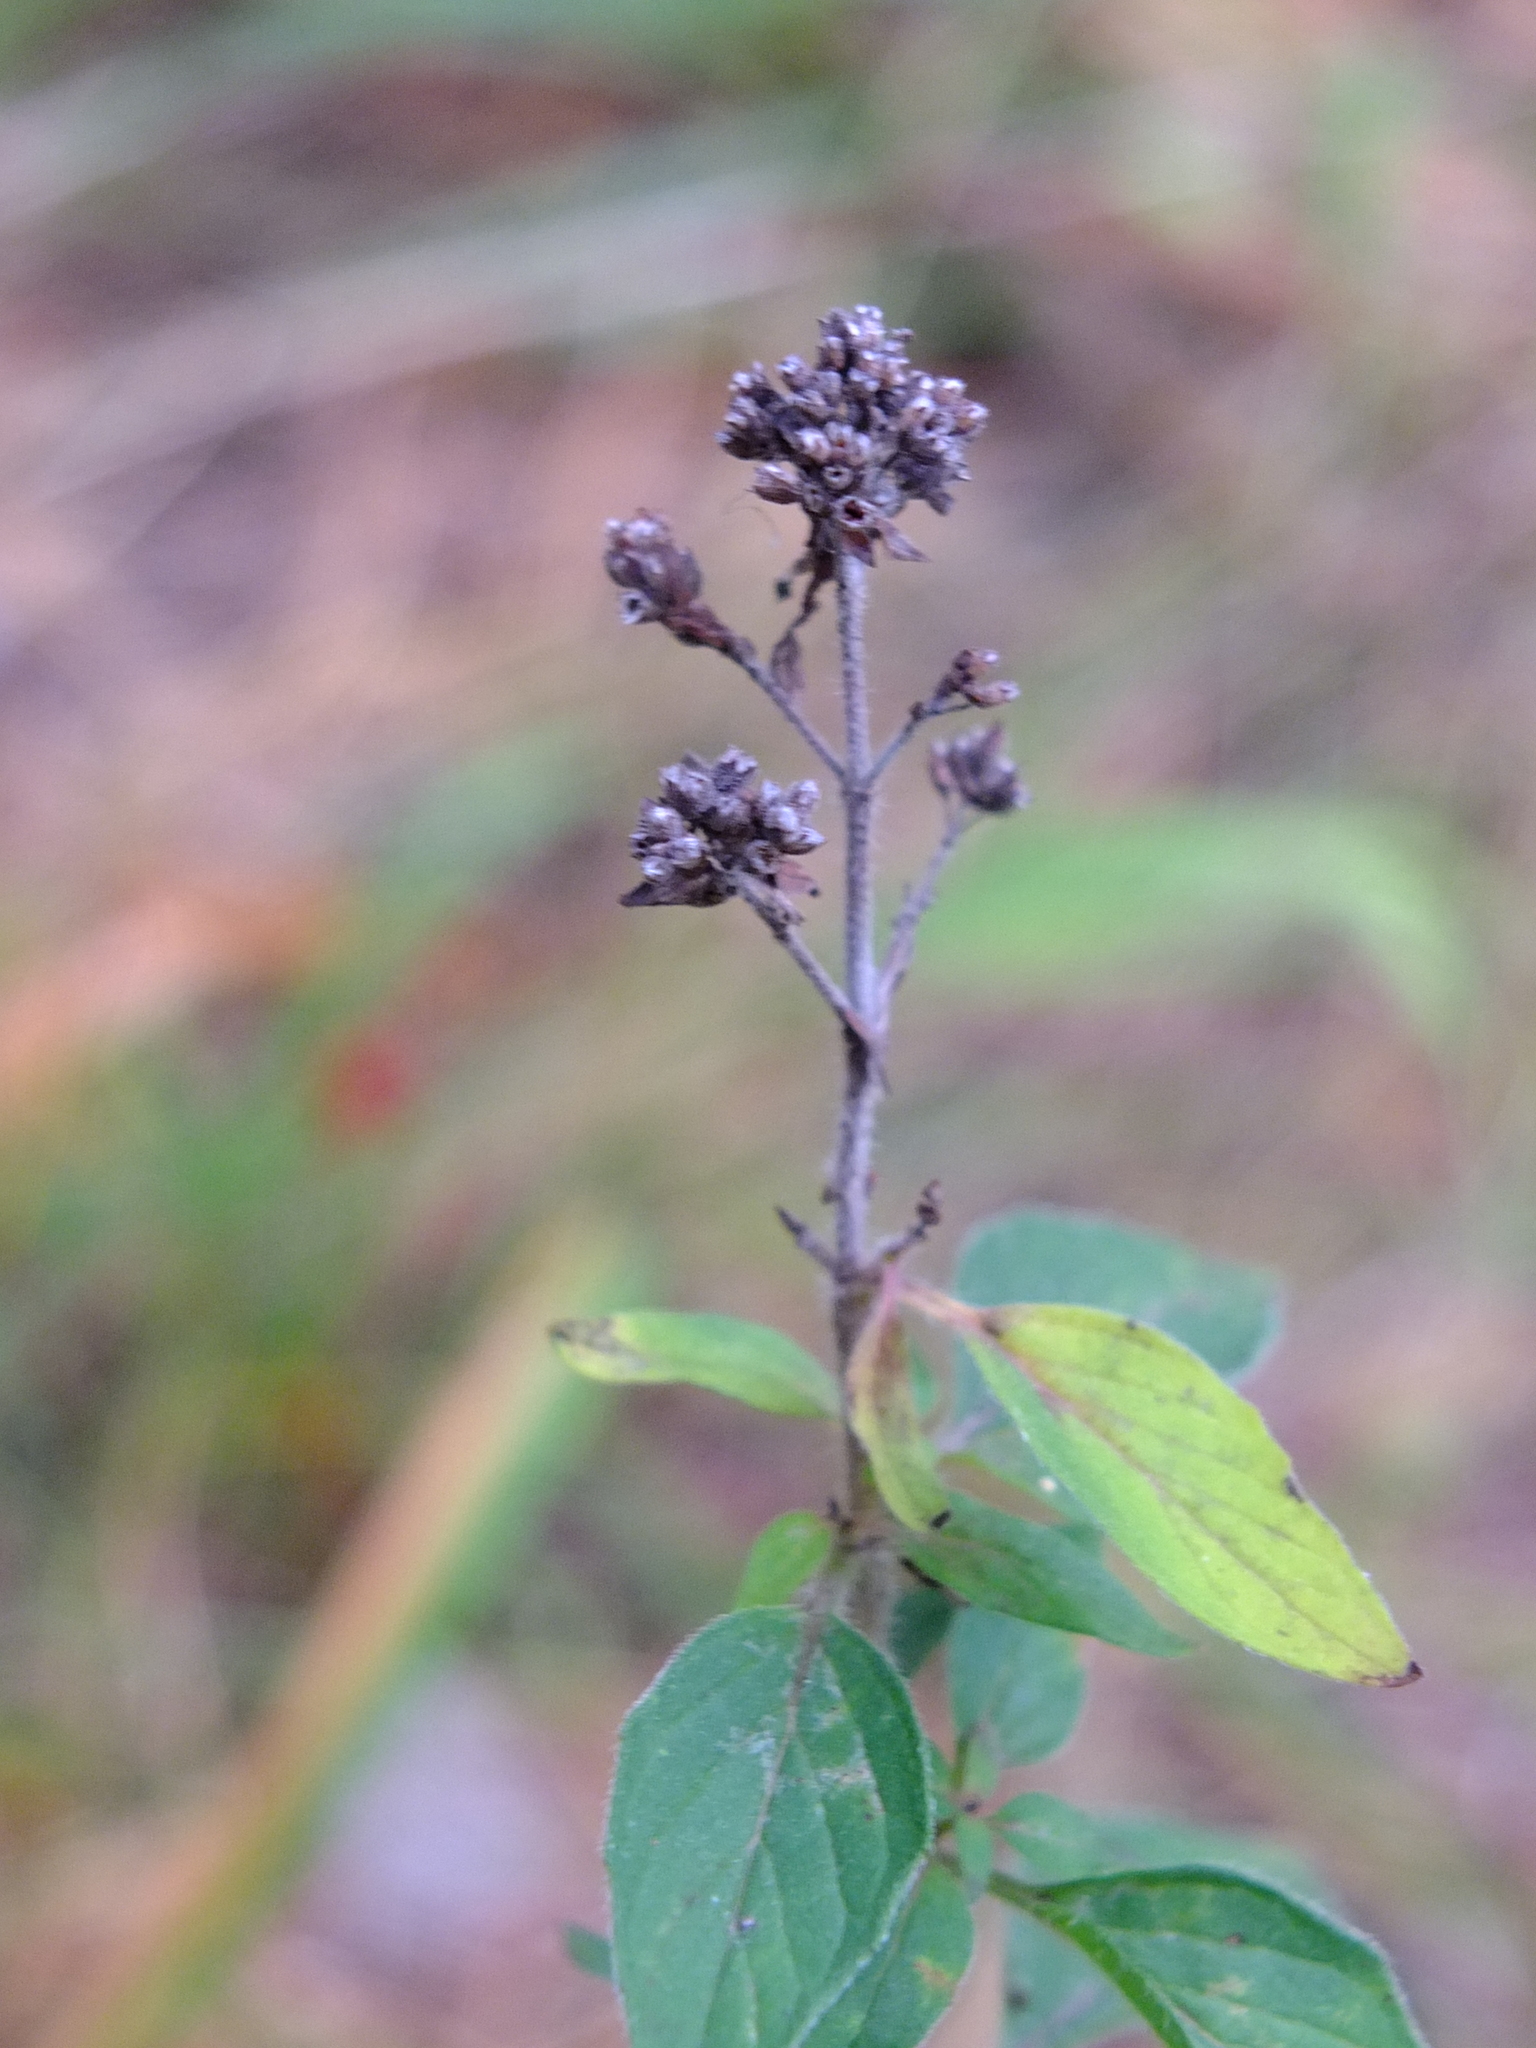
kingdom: Plantae
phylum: Tracheophyta
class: Magnoliopsida
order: Lamiales
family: Lamiaceae
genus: Origanum
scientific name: Origanum vulgare
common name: Wild marjoram
